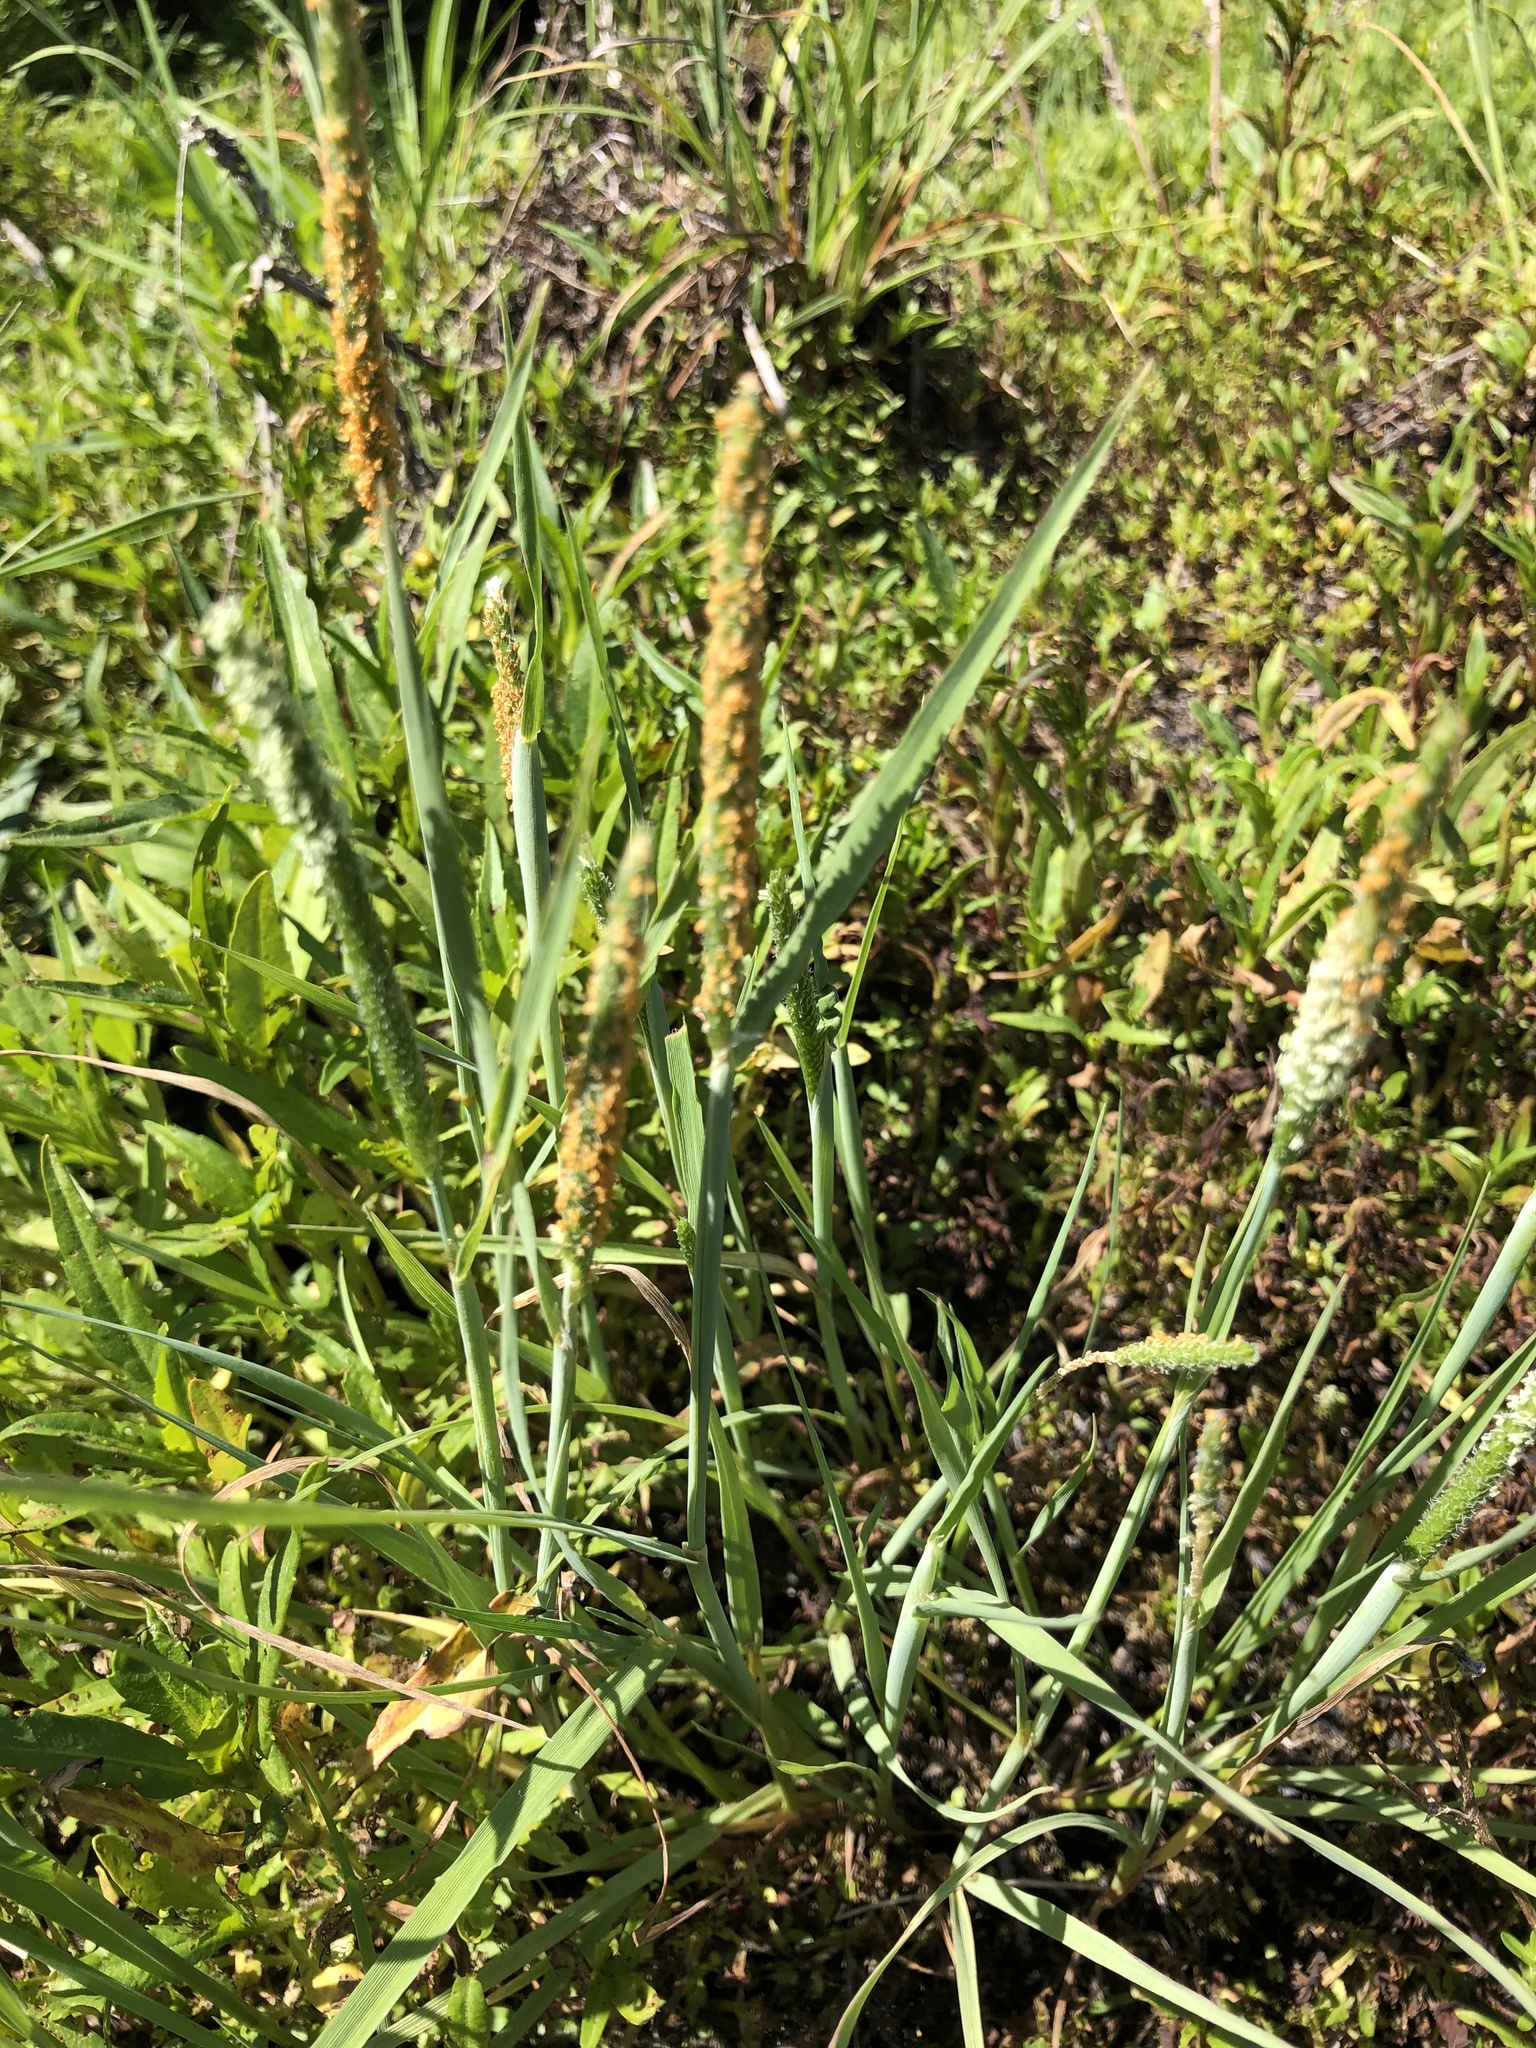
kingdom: Plantae
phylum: Tracheophyta
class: Liliopsida
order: Poales
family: Poaceae
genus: Alopecurus
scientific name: Alopecurus aequalis
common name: Orange foxtail
